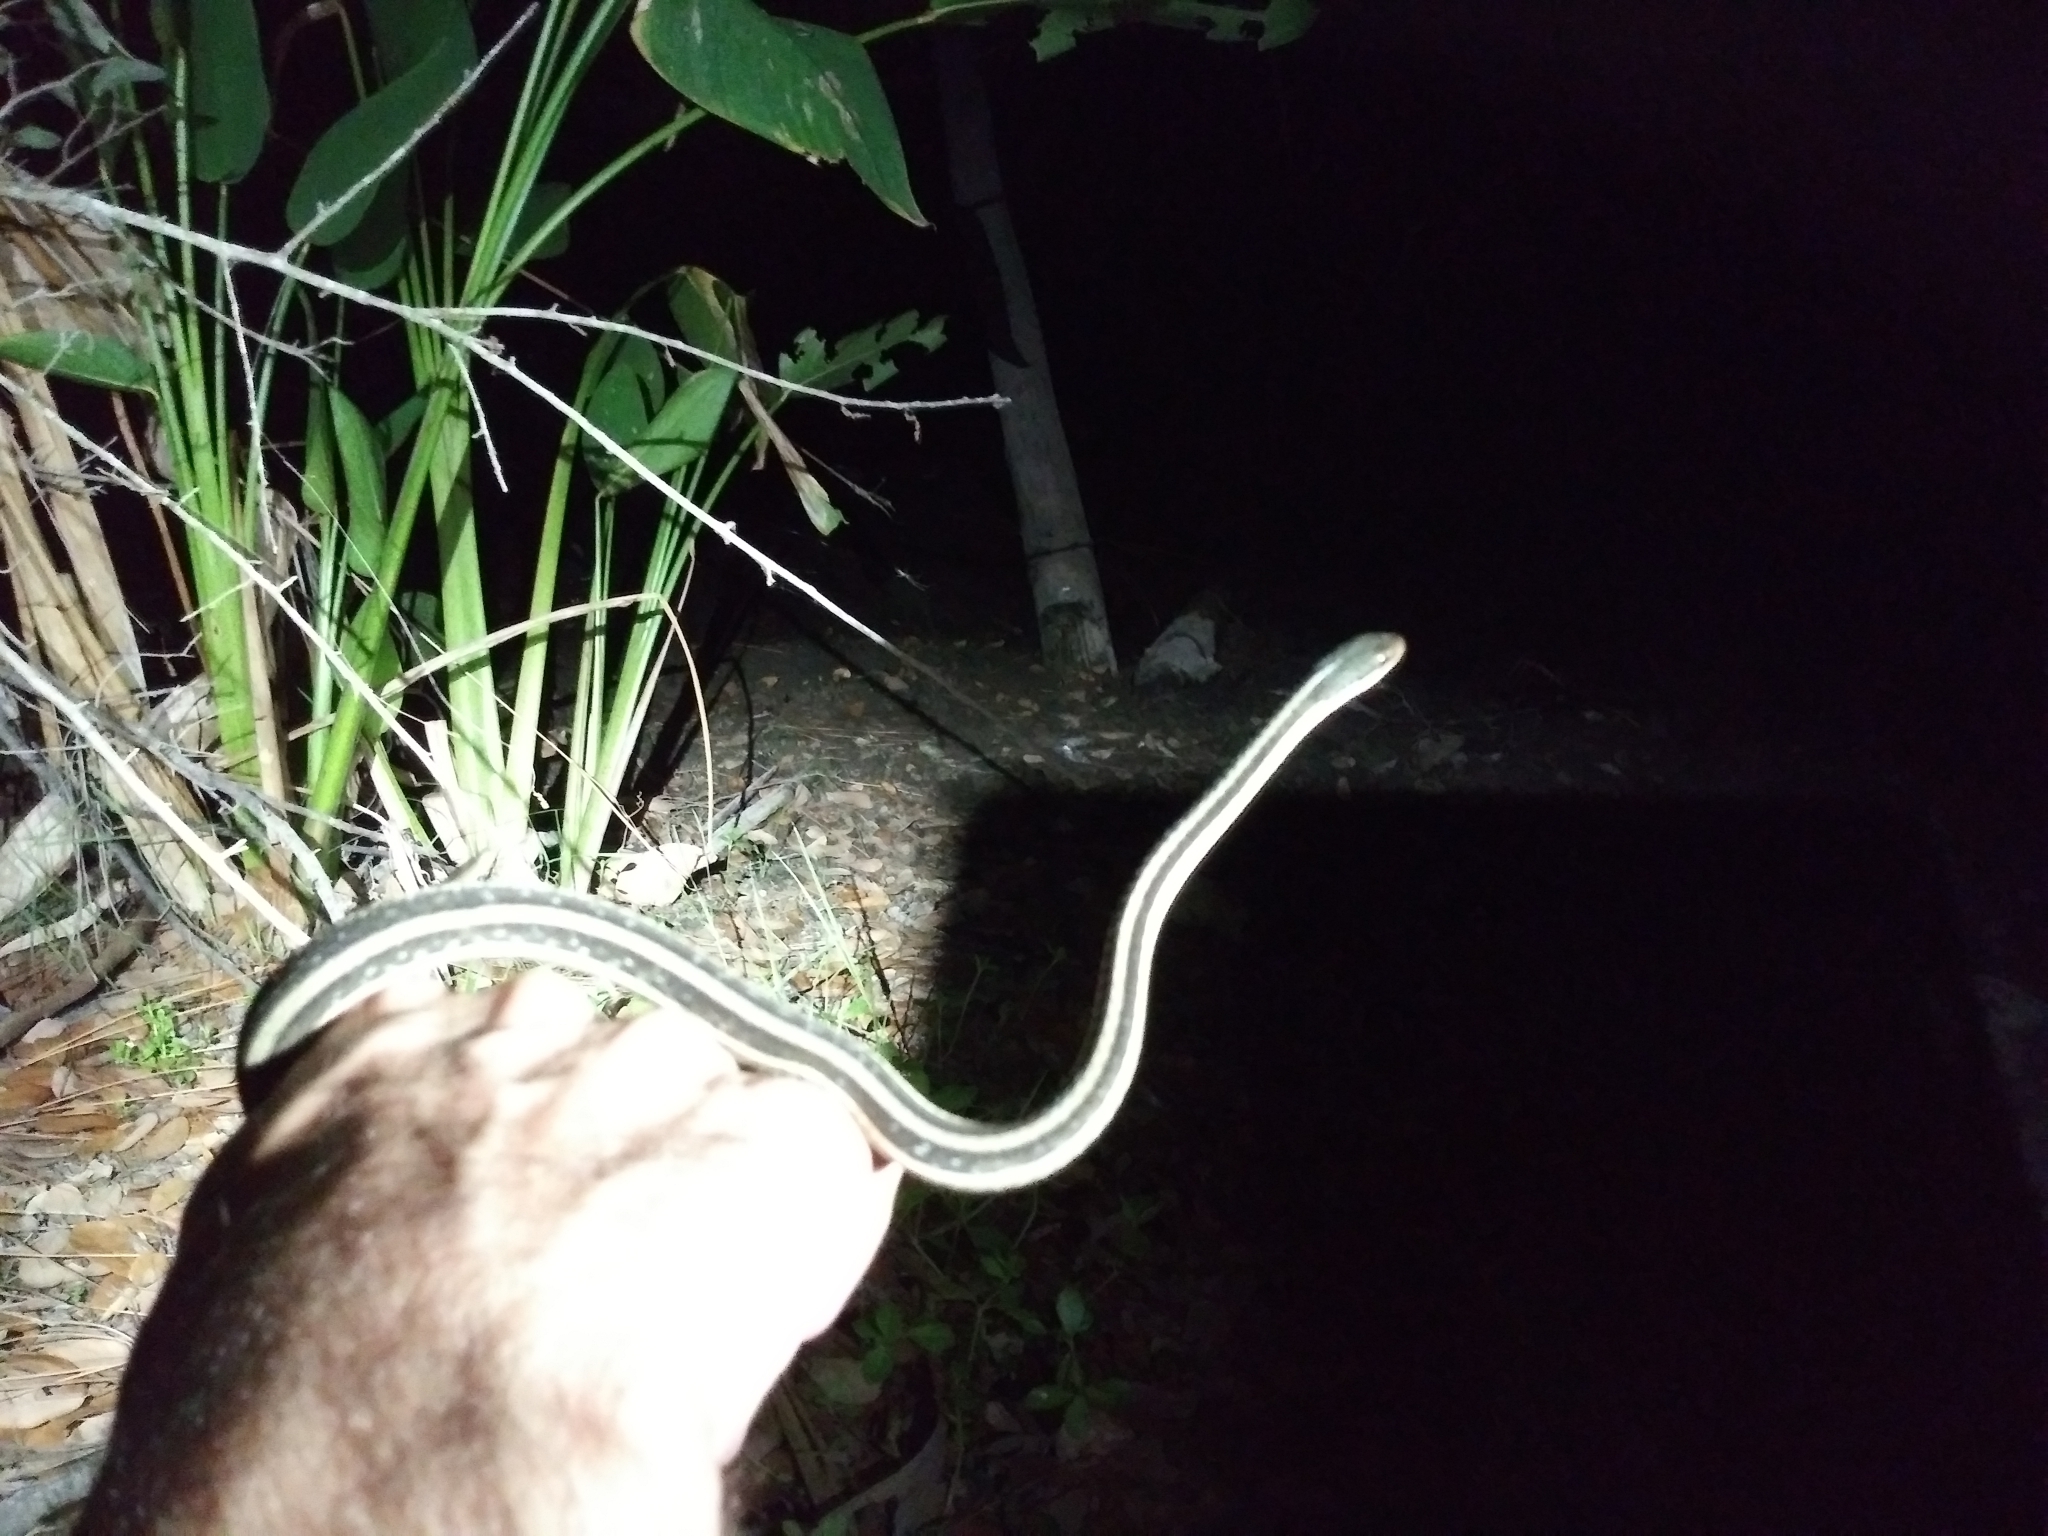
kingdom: Animalia
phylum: Chordata
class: Squamata
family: Colubridae
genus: Thamnophis
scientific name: Thamnophis saurita
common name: Eastern ribbonsnake
